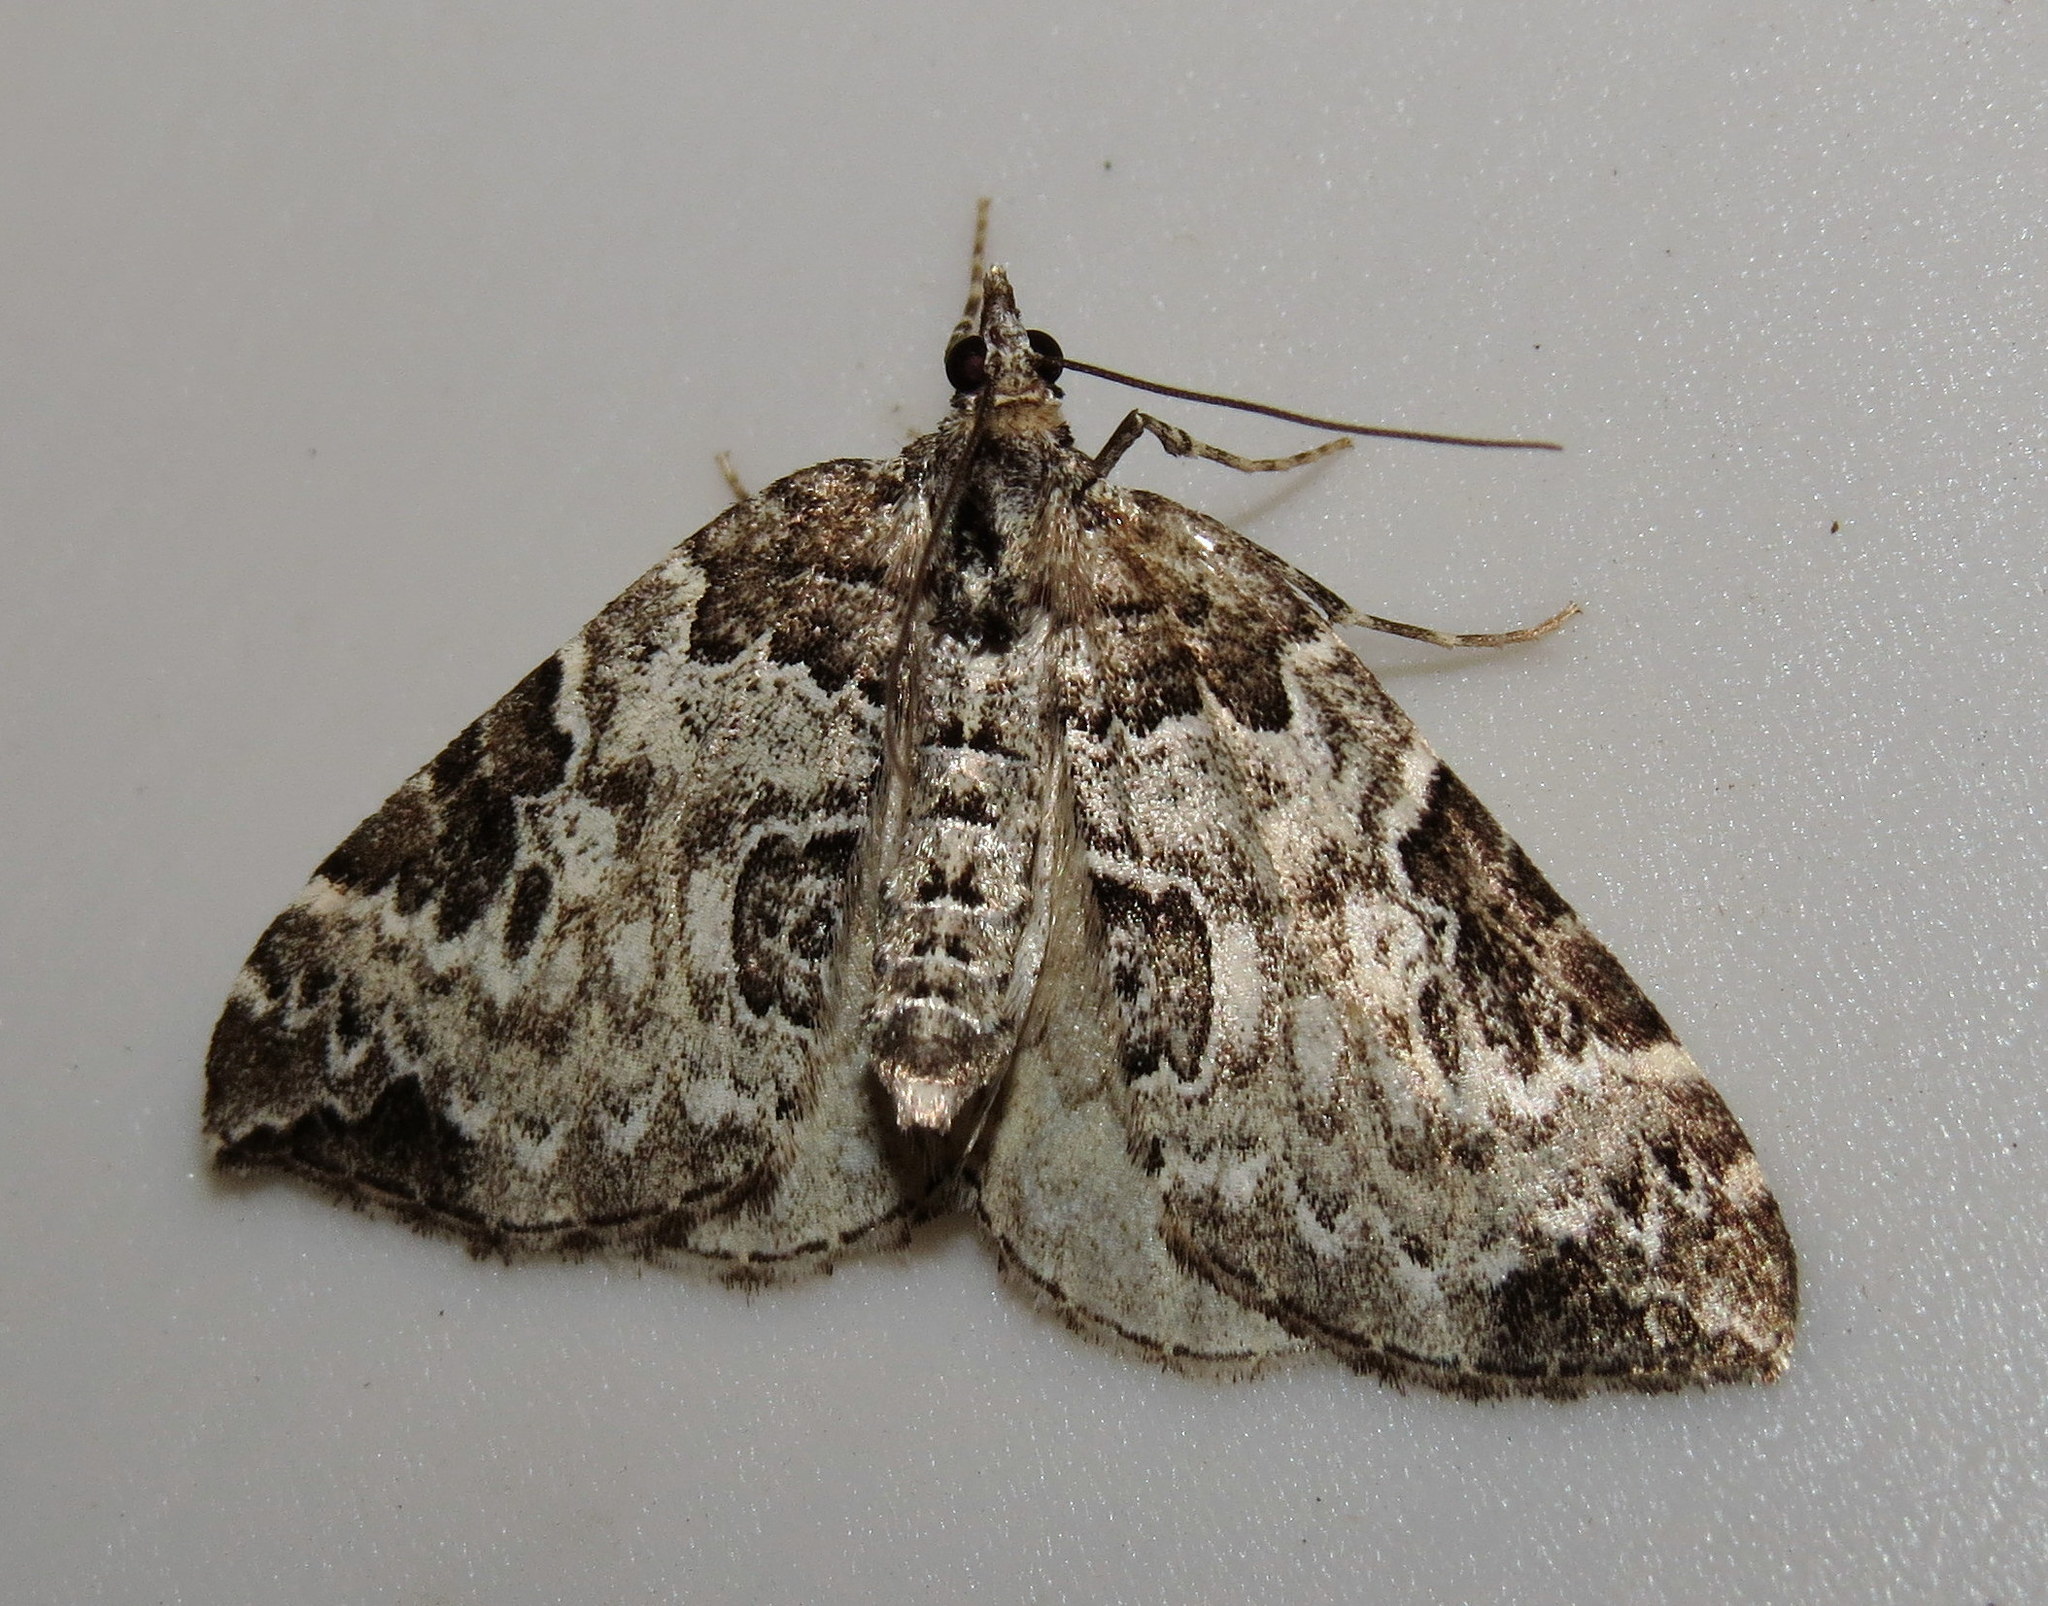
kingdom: Animalia
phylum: Arthropoda
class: Insecta
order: Lepidoptera
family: Geometridae
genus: Eulithis
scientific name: Eulithis explanata
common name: White eulithis
